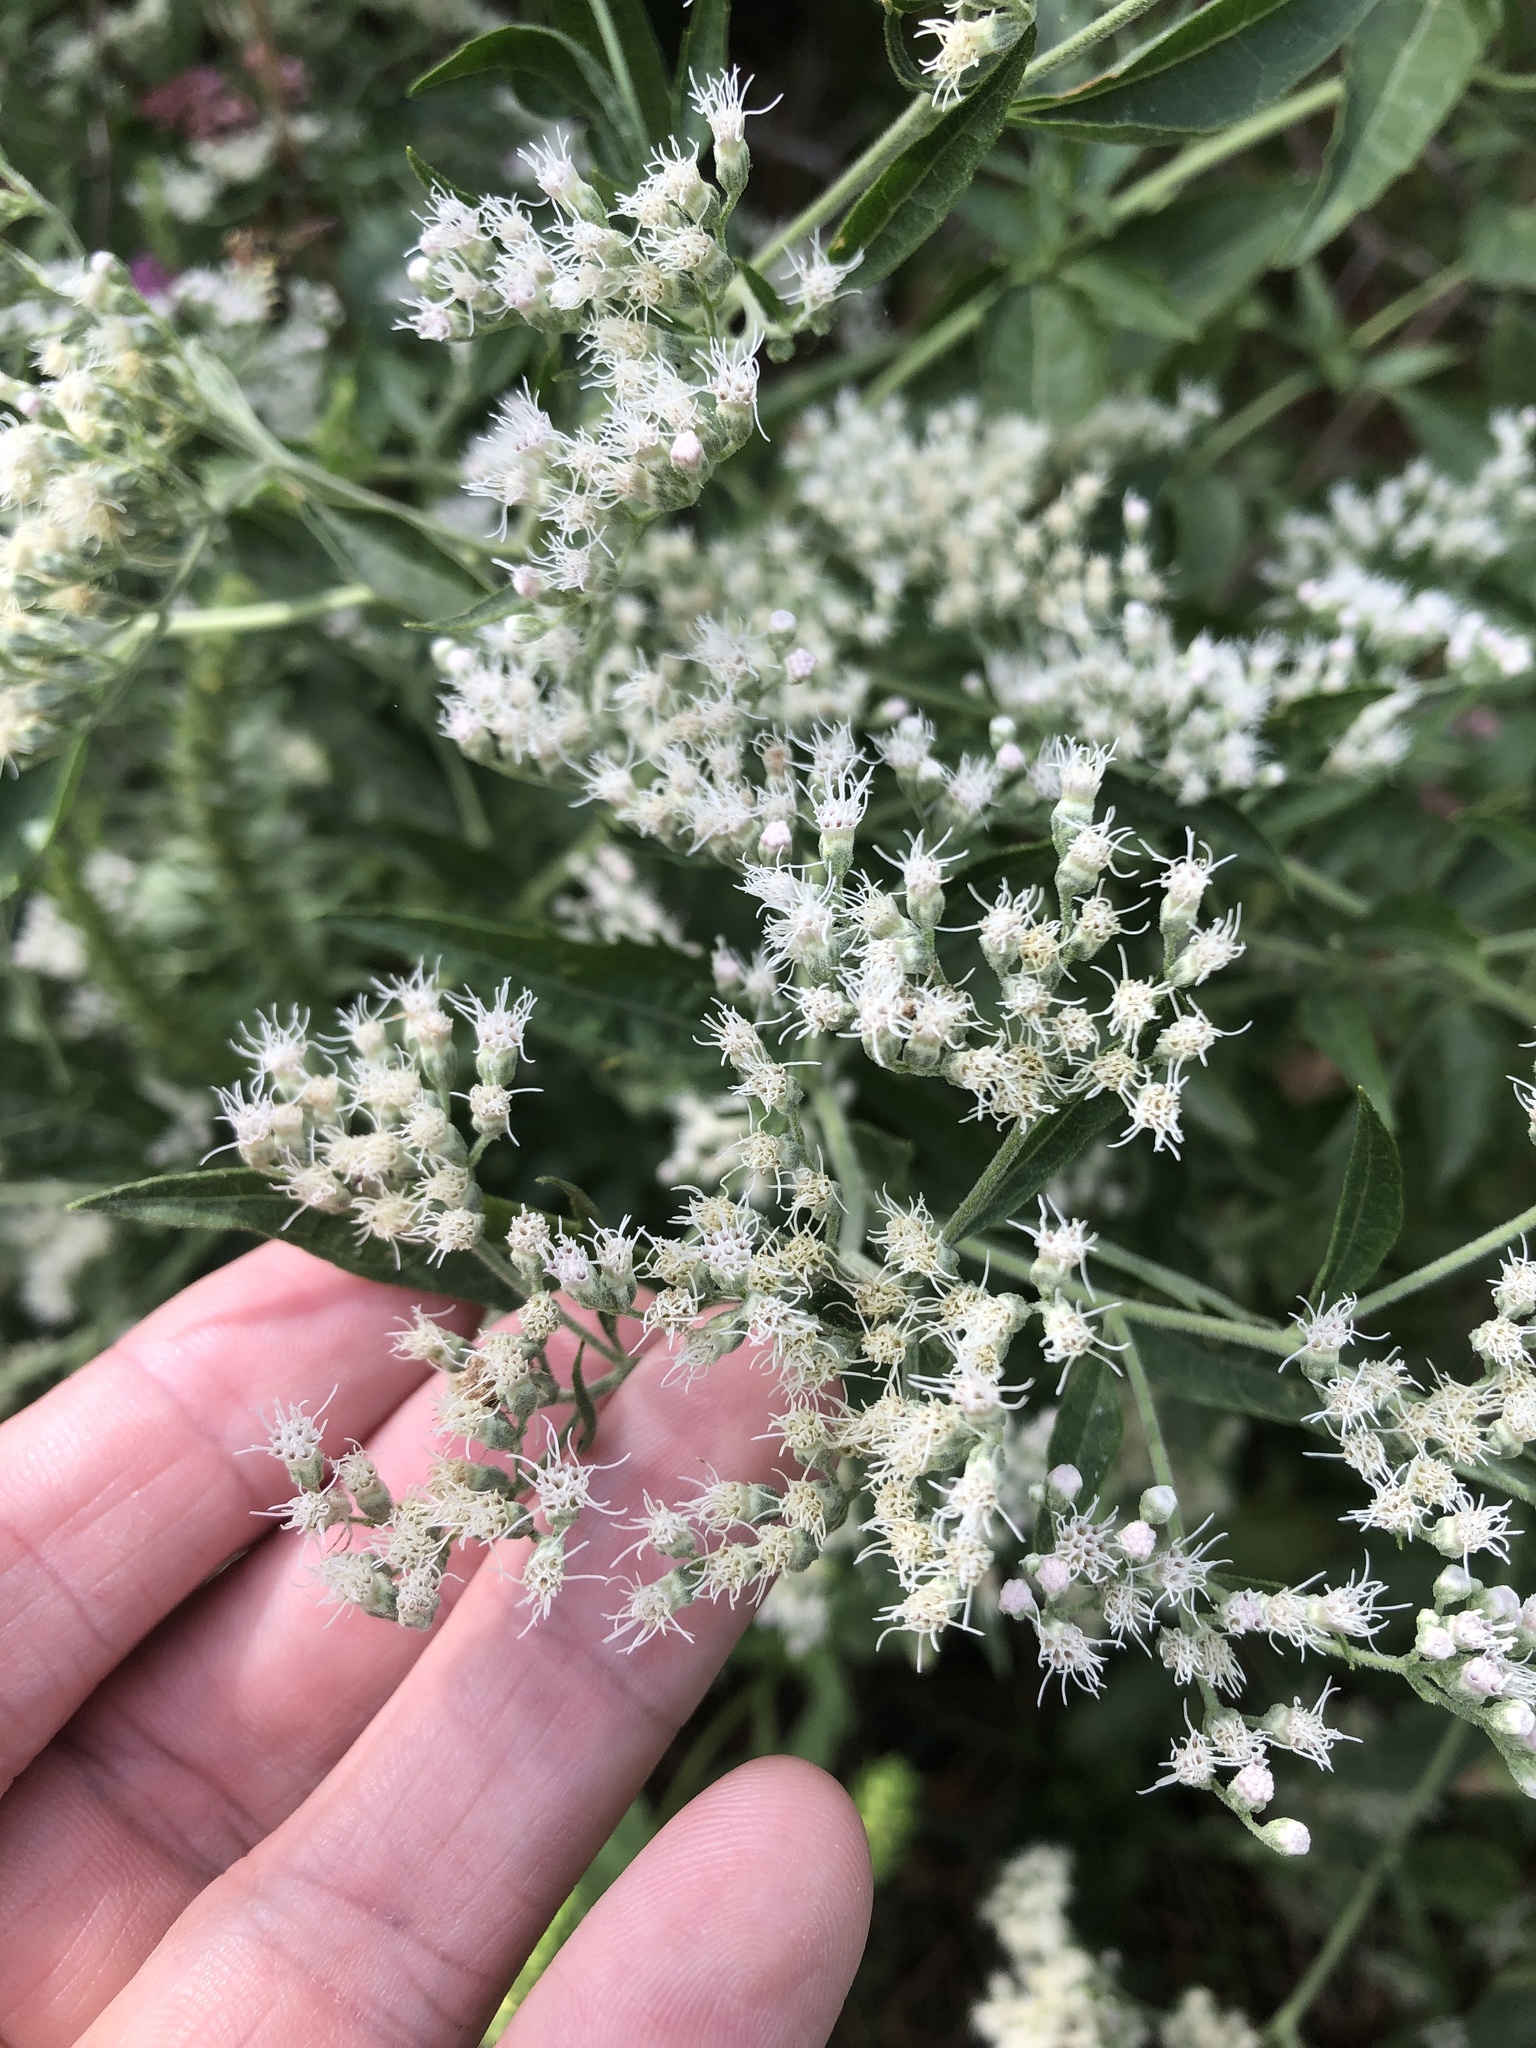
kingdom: Plantae
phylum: Tracheophyta
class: Magnoliopsida
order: Asterales
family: Asteraceae
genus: Eupatorium
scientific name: Eupatorium serotinum
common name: Late boneset
